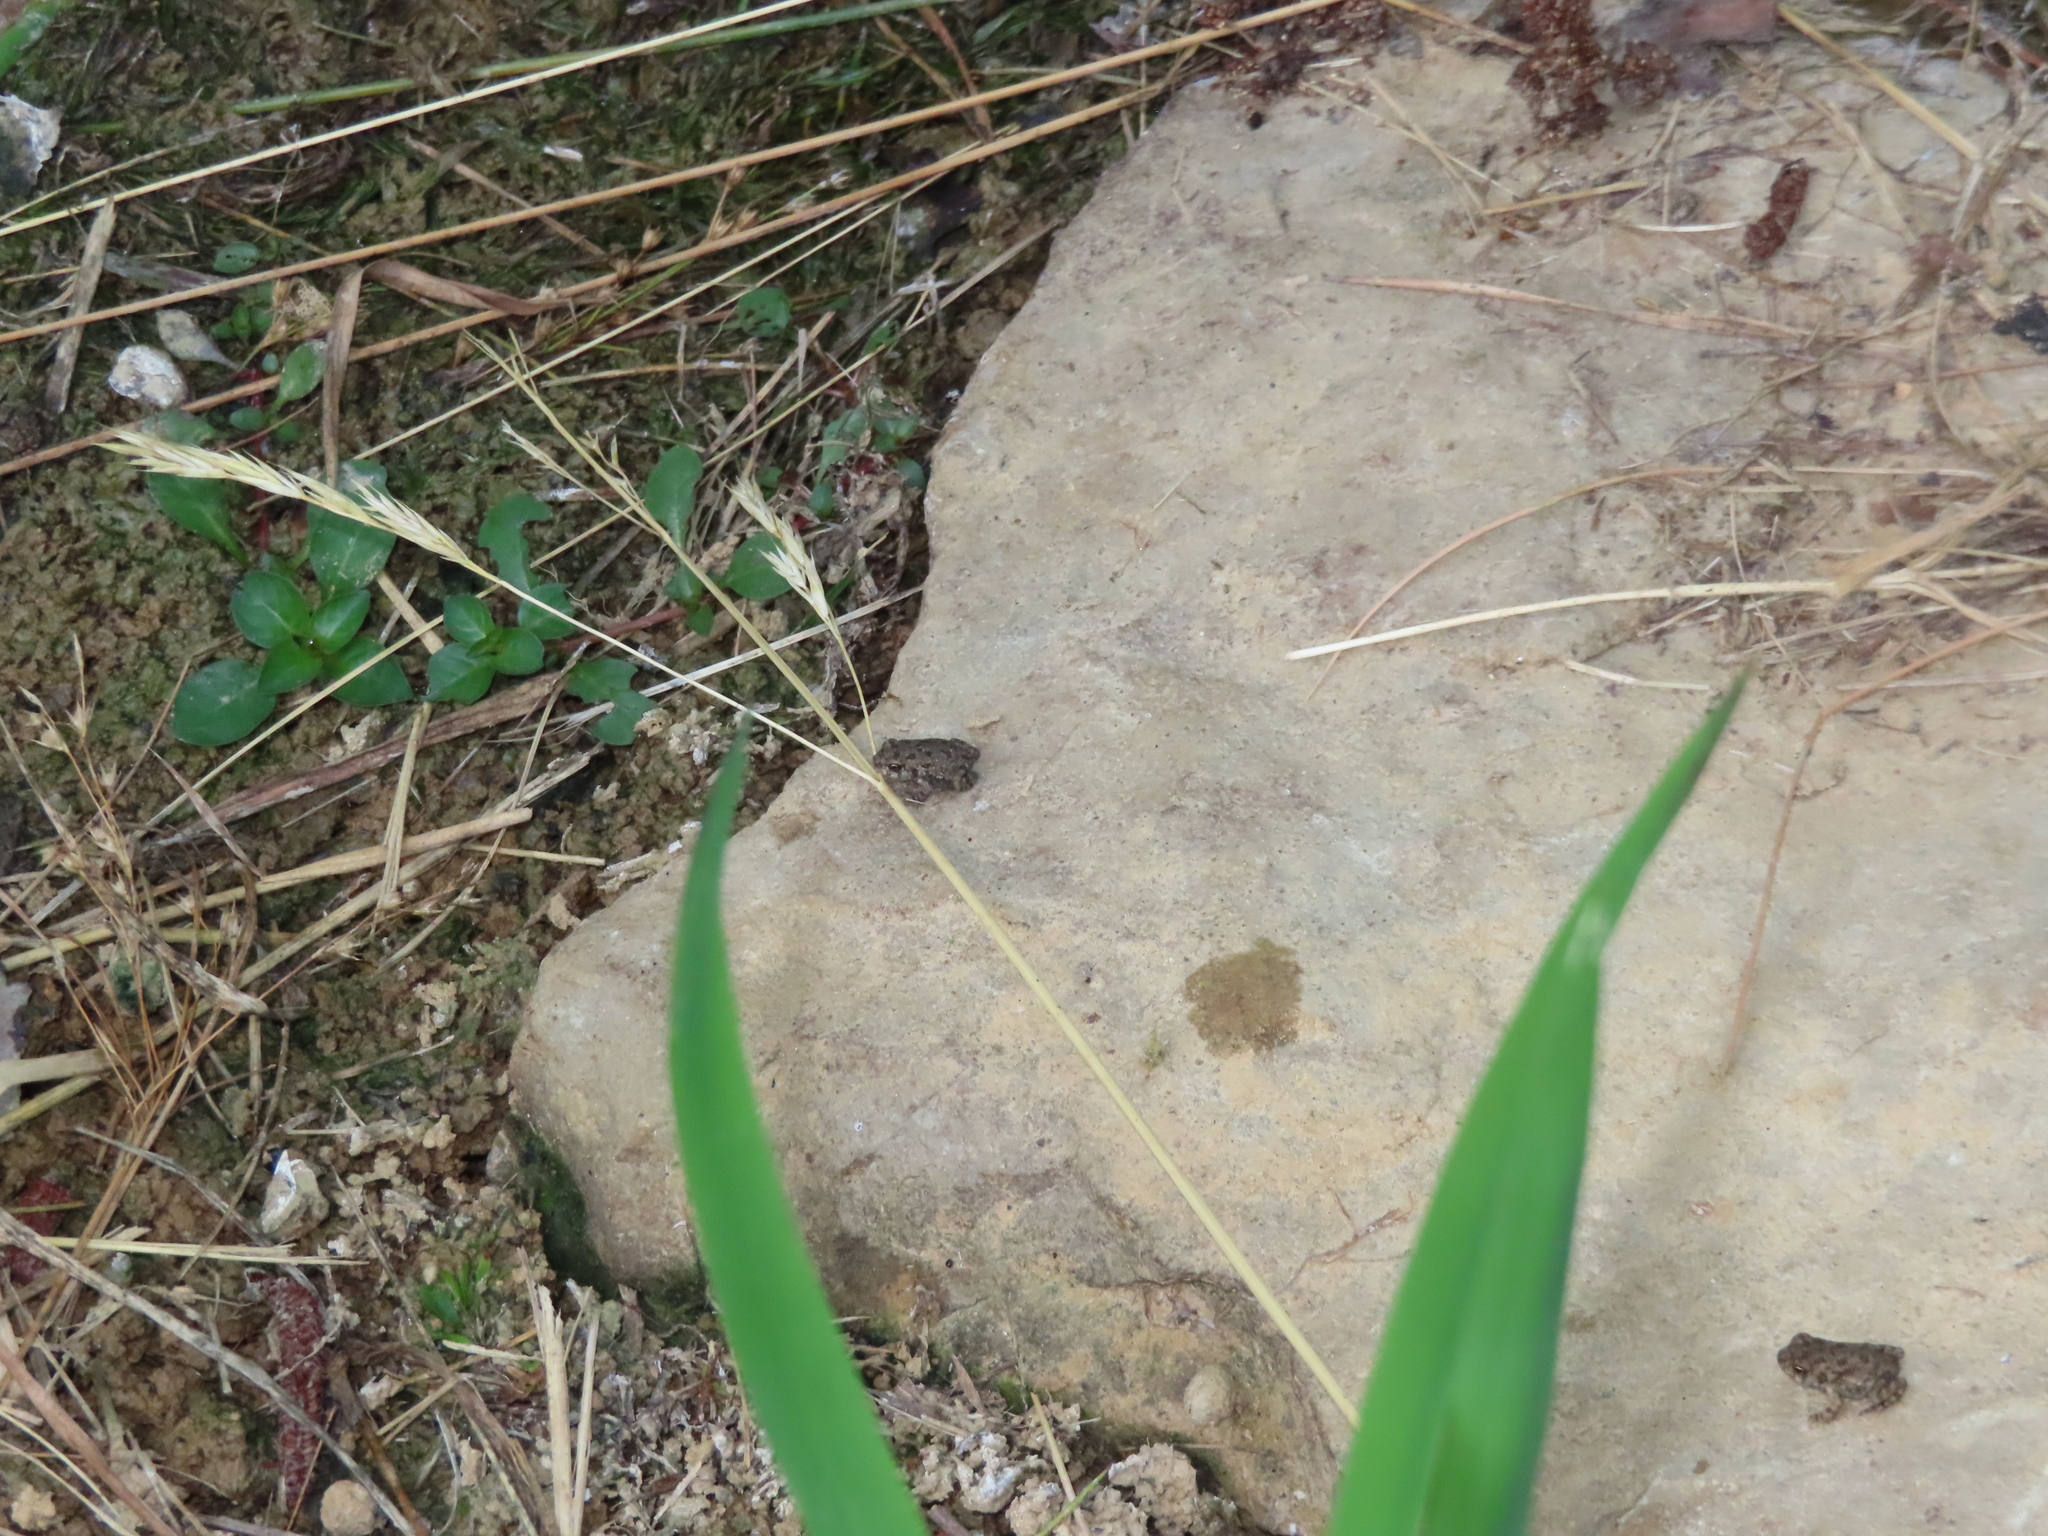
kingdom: Animalia
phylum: Chordata
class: Amphibia
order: Anura
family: Bufonidae
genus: Anaxyrus
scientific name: Anaxyrus fowleri
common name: Fowler's toad
